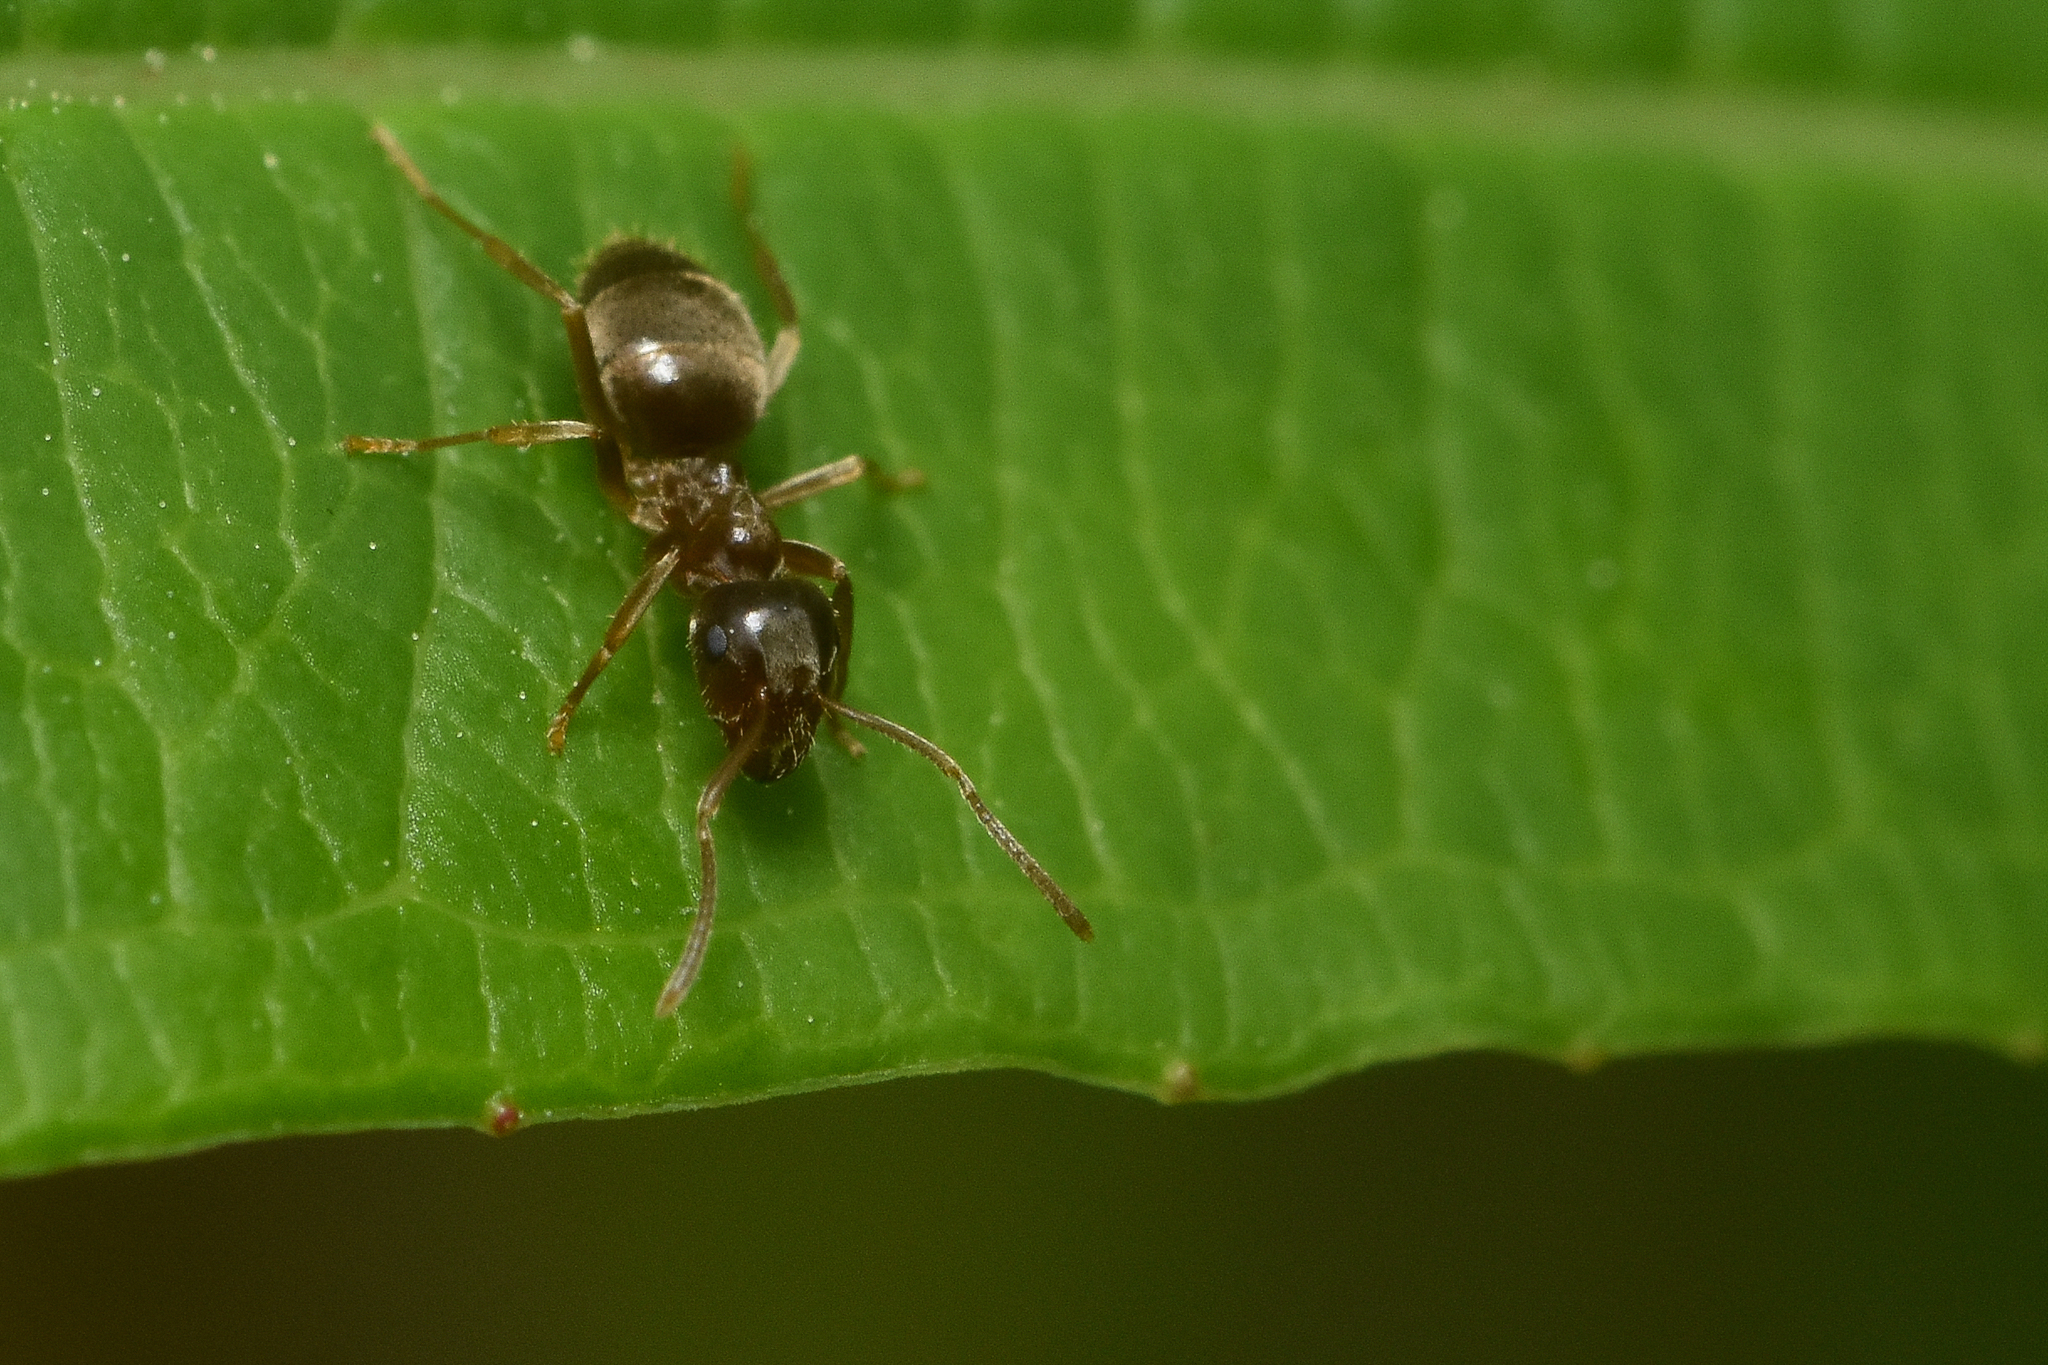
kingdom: Animalia
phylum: Arthropoda
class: Insecta
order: Hymenoptera
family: Formicidae
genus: Lasius
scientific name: Lasius pallitarsis
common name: Subterranean aphid-tending ant
